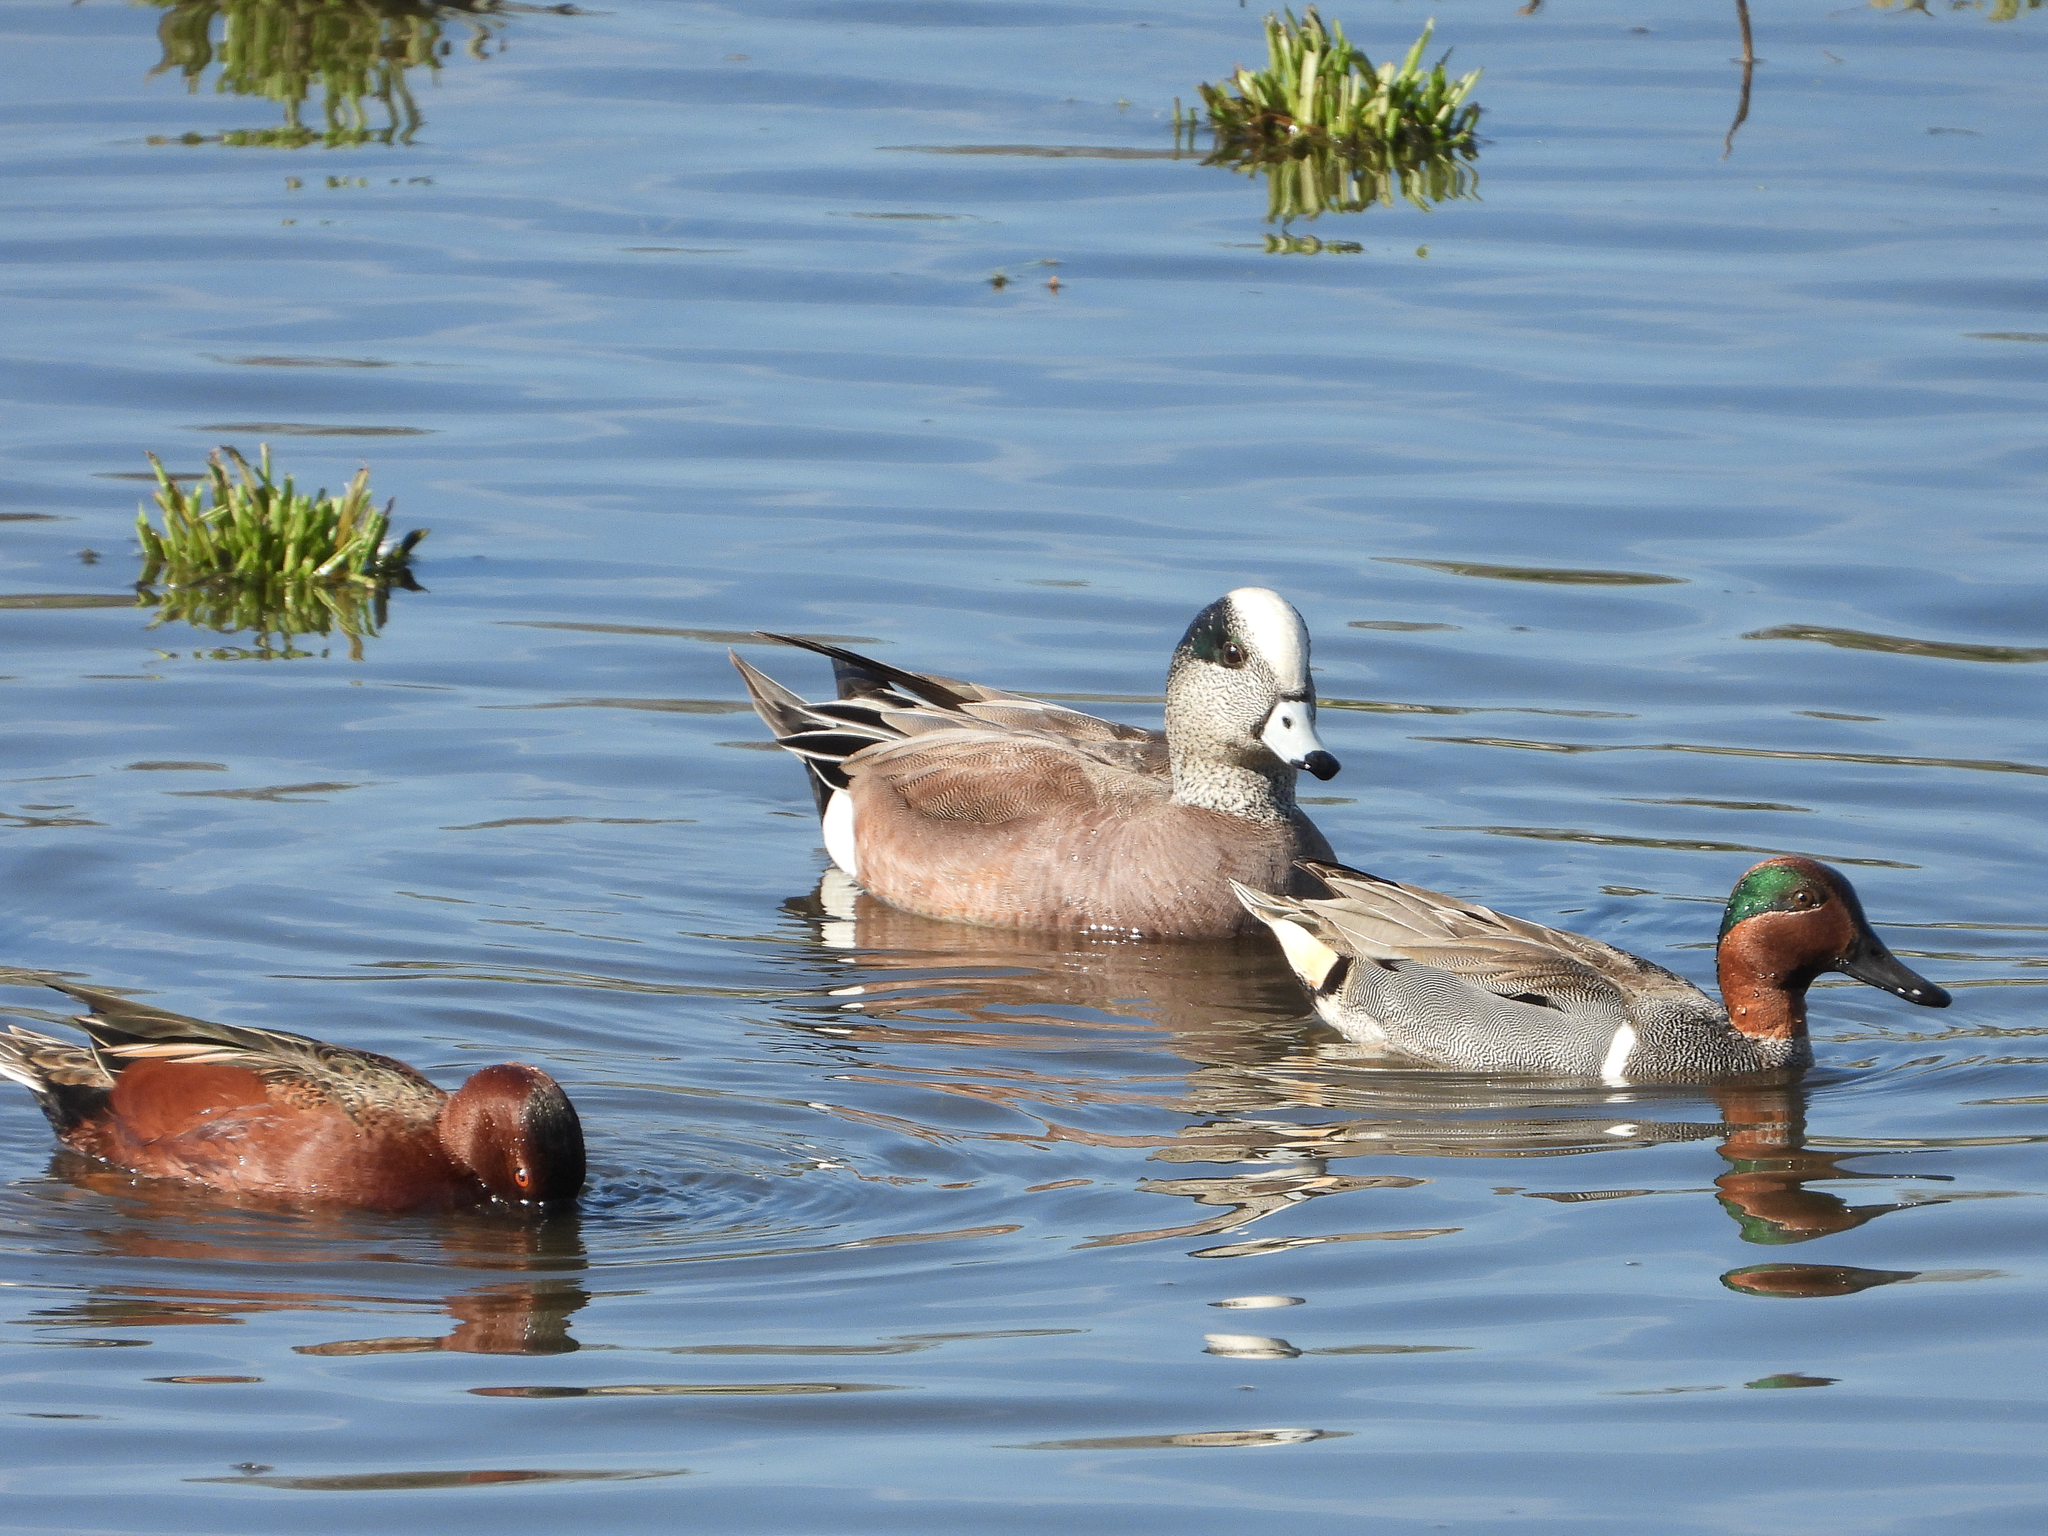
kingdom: Animalia
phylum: Chordata
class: Aves
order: Anseriformes
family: Anatidae
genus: Mareca
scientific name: Mareca americana
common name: American wigeon
